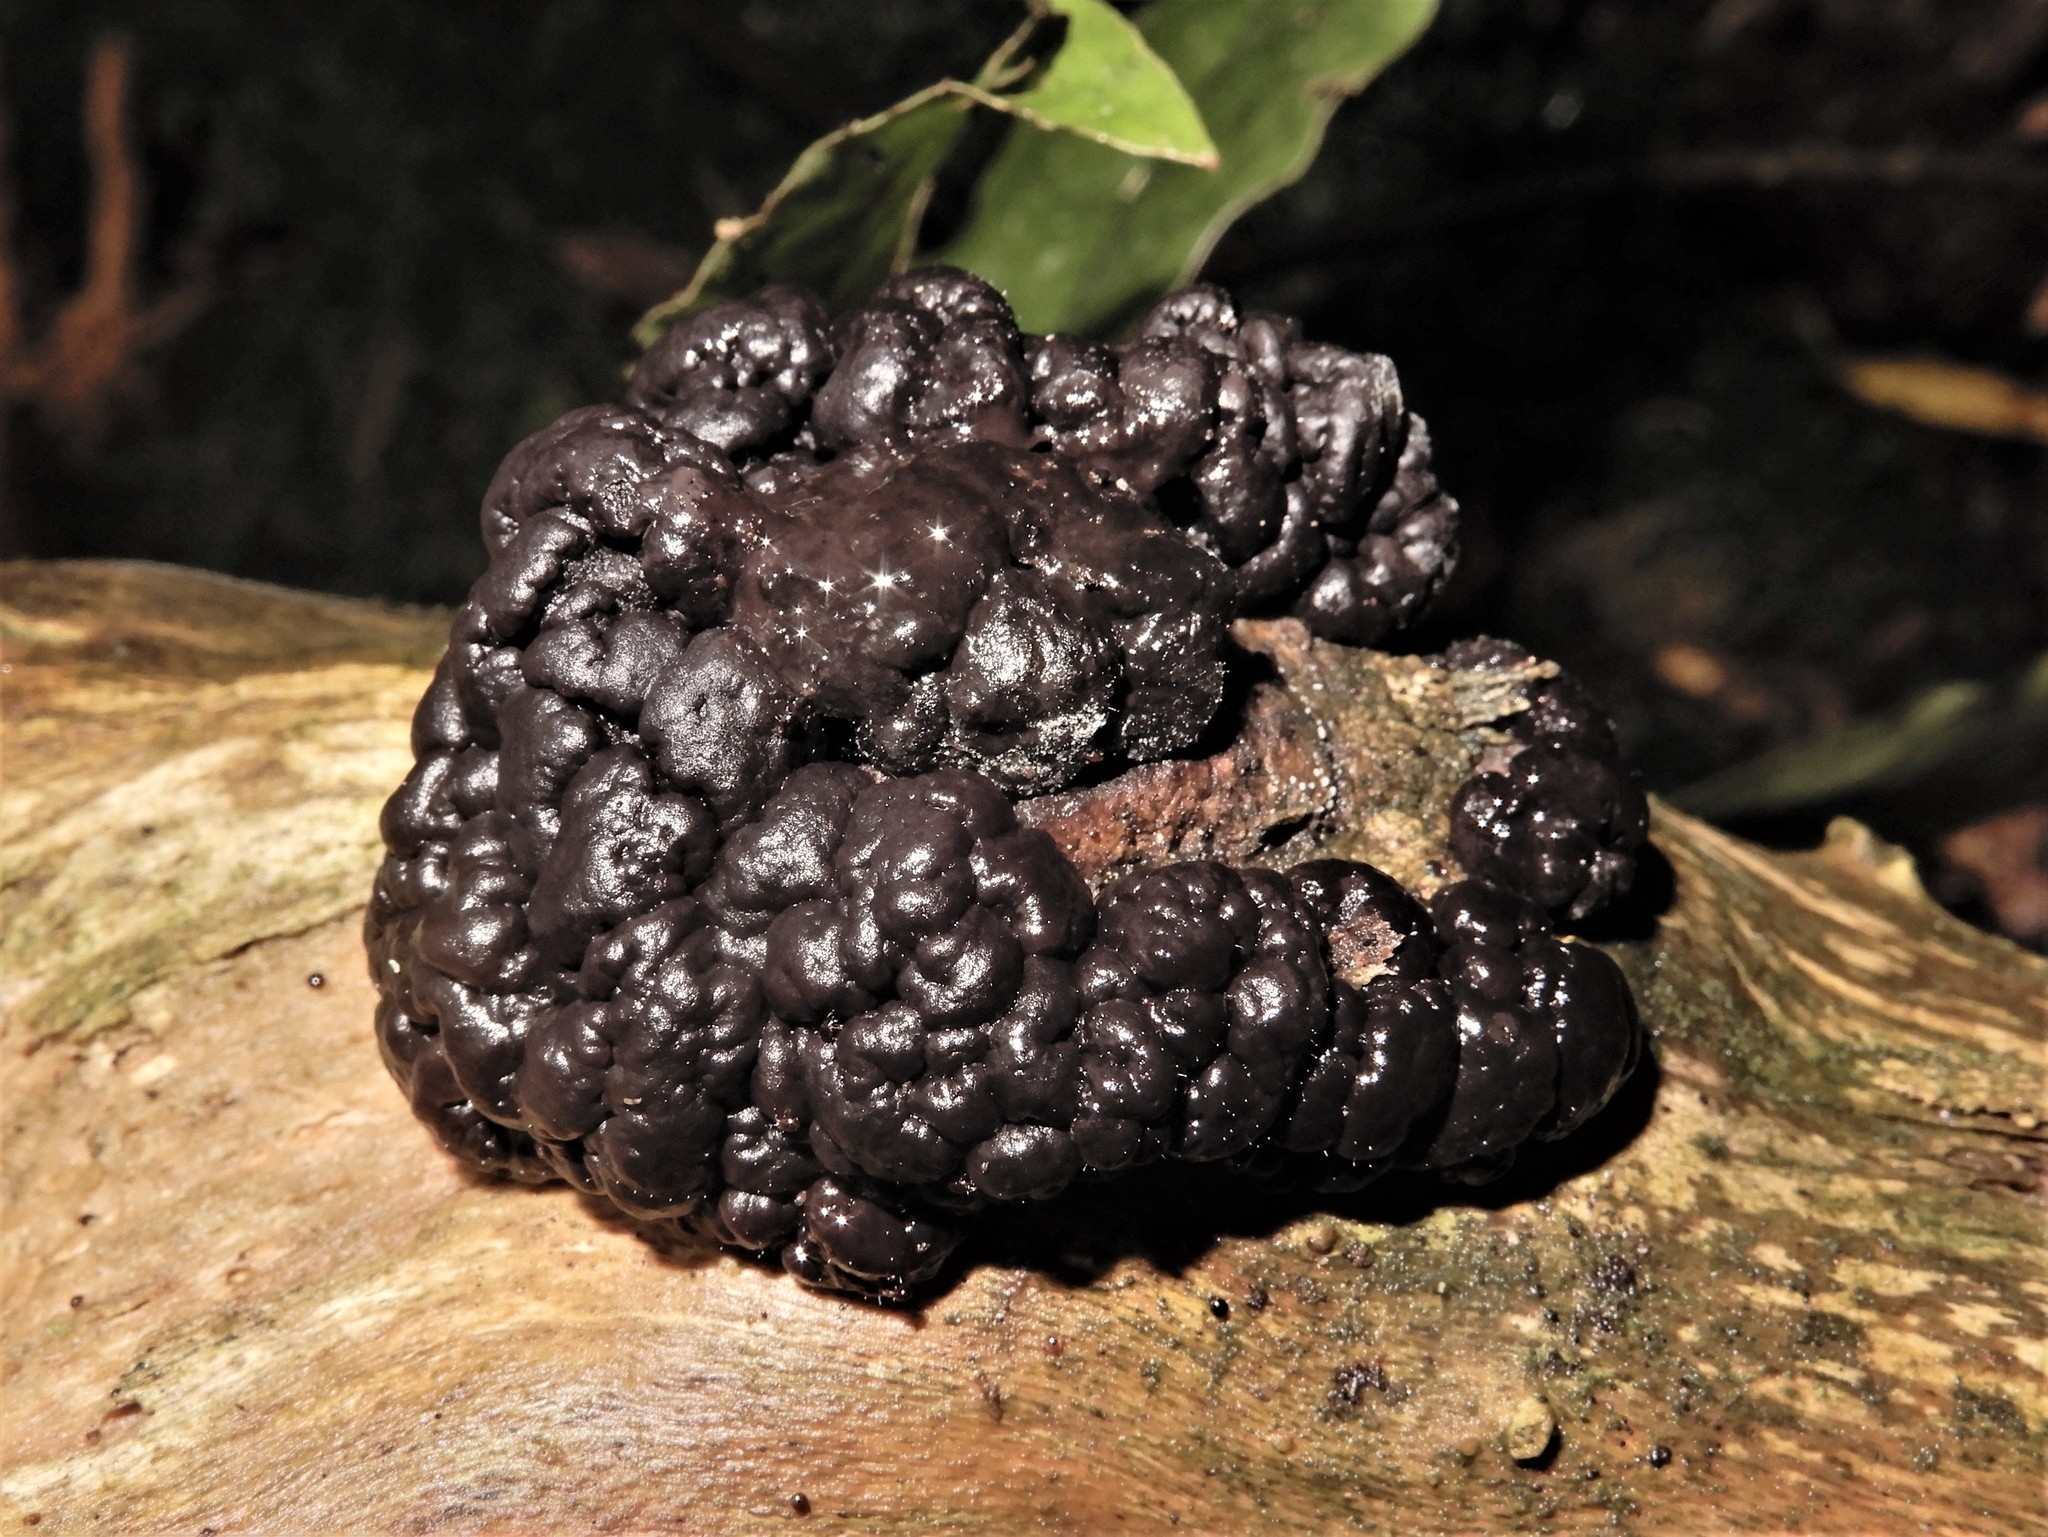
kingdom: Fungi
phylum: Ascomycota
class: Leotiomycetes
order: Helotiales
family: Gelatinodiscaceae
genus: Ascotremella
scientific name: Ascotremella faginea
